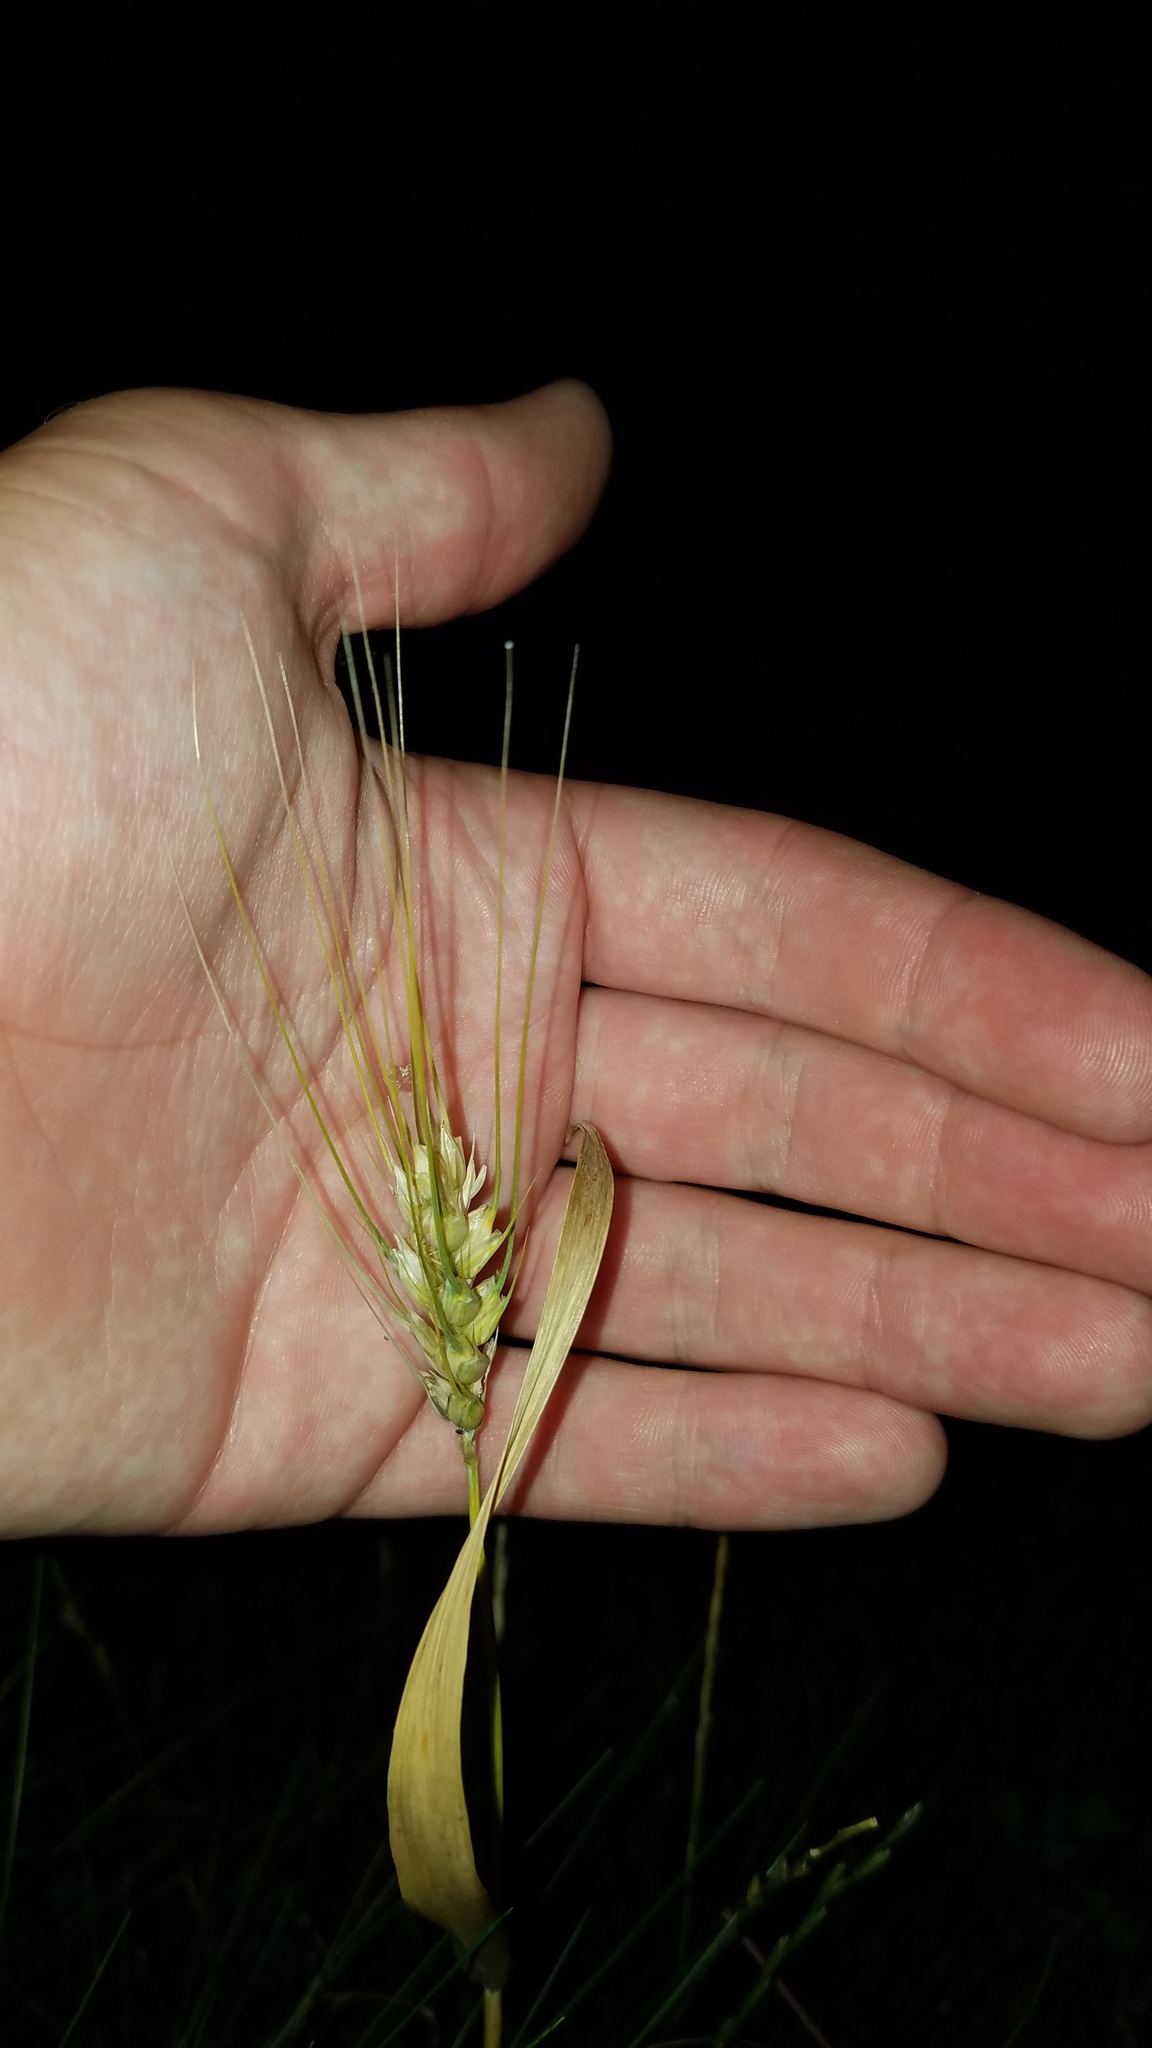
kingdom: Plantae
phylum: Tracheophyta
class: Liliopsida
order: Poales
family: Poaceae
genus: Triticum
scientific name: Triticum aestivum
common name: Common wheat
